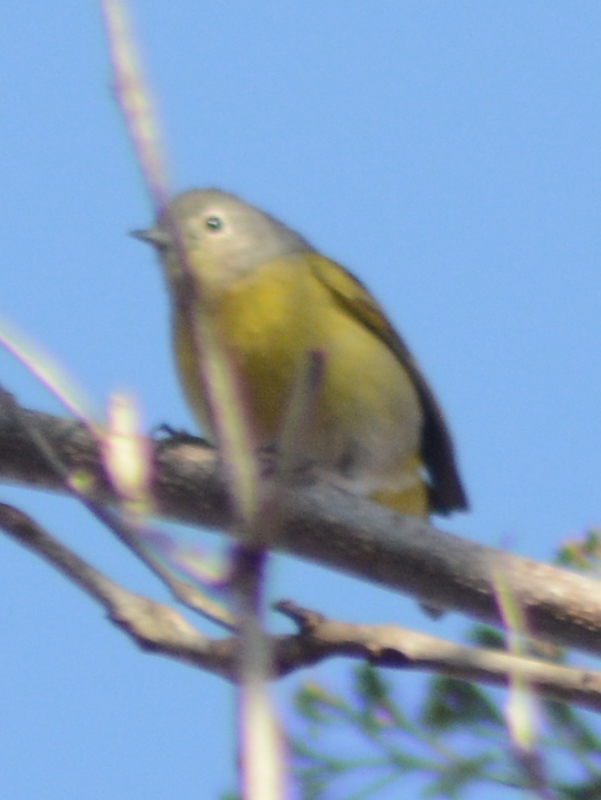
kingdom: Animalia
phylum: Chordata
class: Aves
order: Passeriformes
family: Parulidae
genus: Leiothlypis
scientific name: Leiothlypis ruficapilla
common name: Nashville warbler
